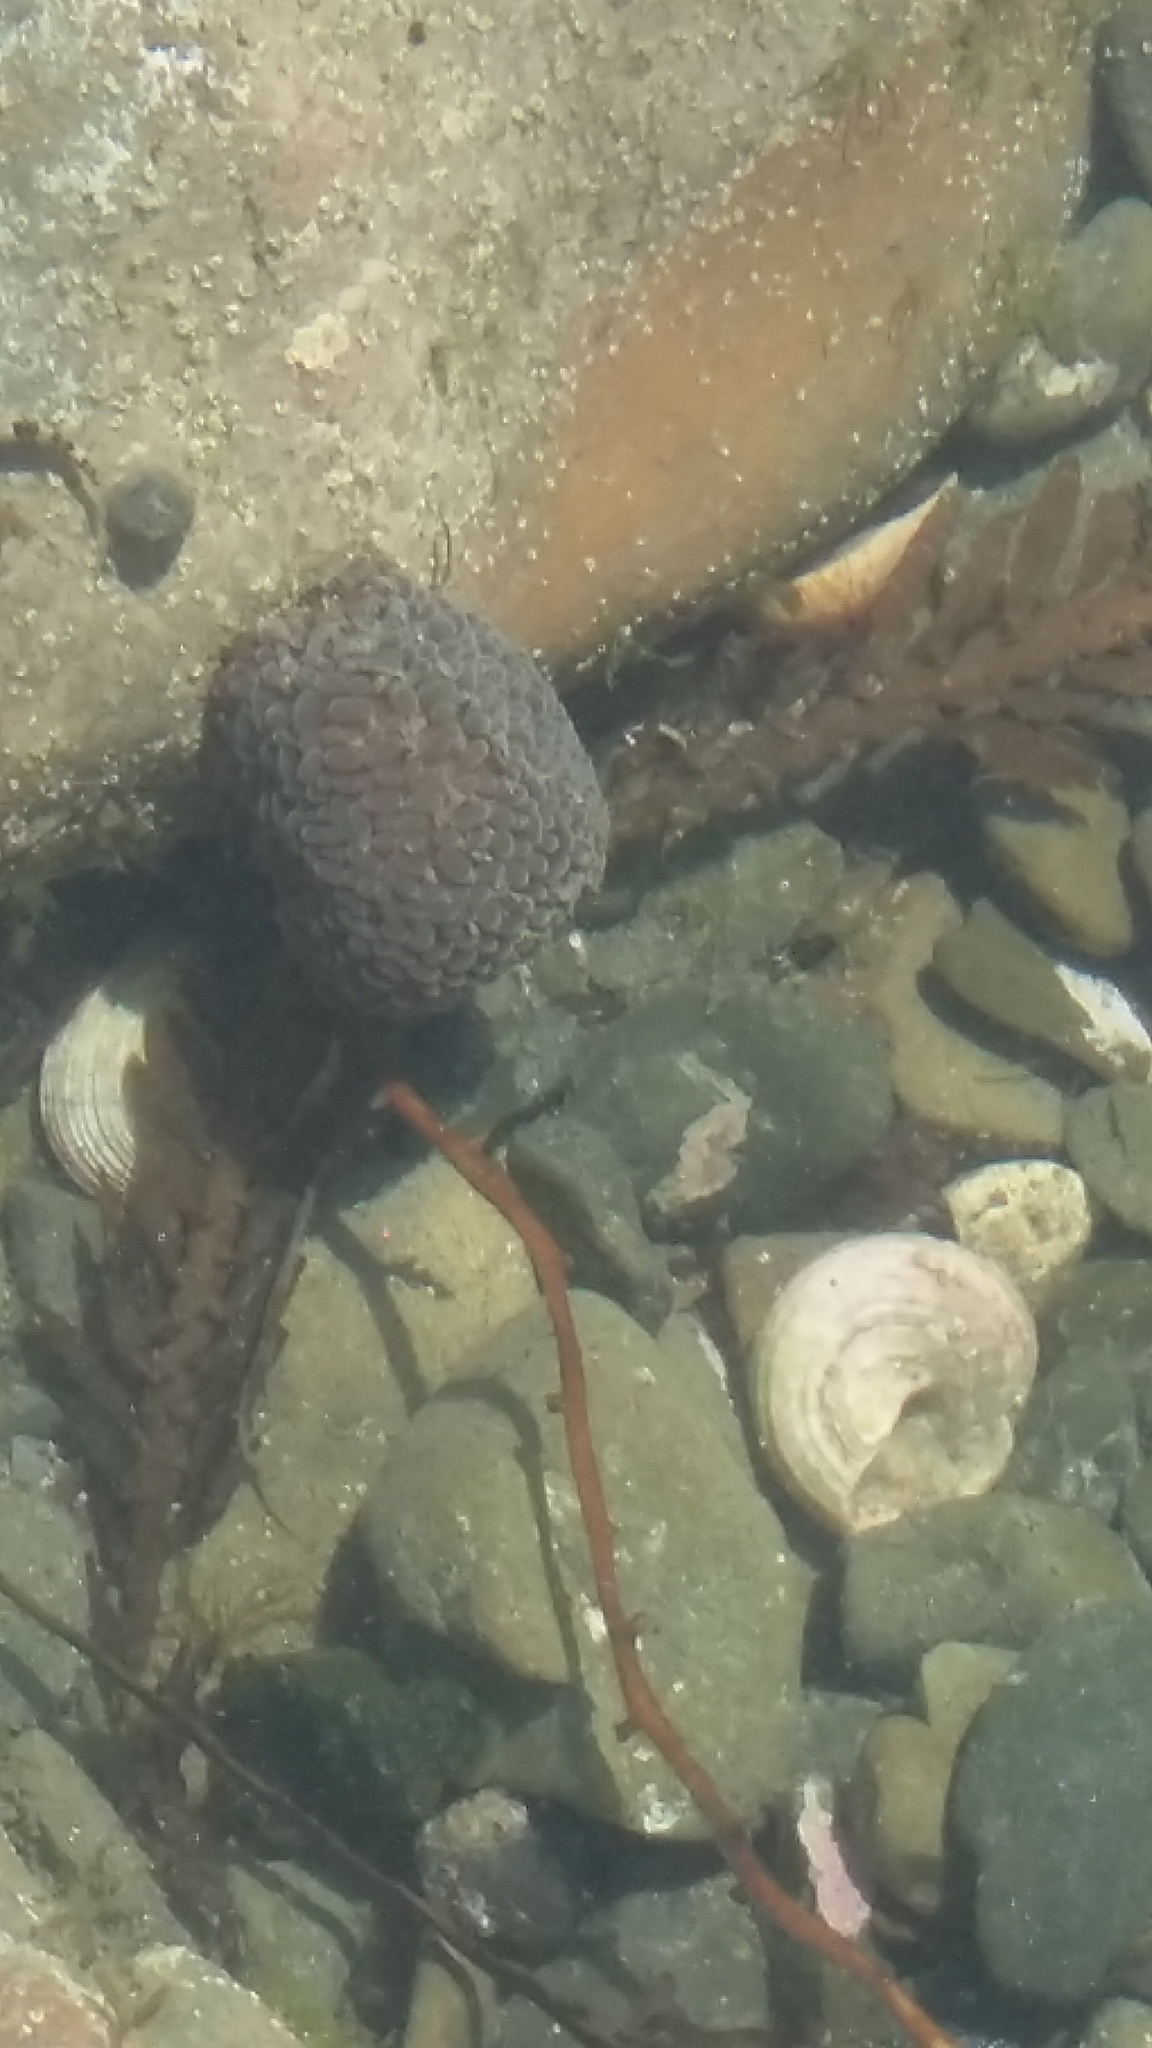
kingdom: Animalia
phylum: Cnidaria
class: Anthozoa
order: Actiniaria
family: Actiniidae
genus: Phlyctenactis
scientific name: Phlyctenactis tuberculosa
